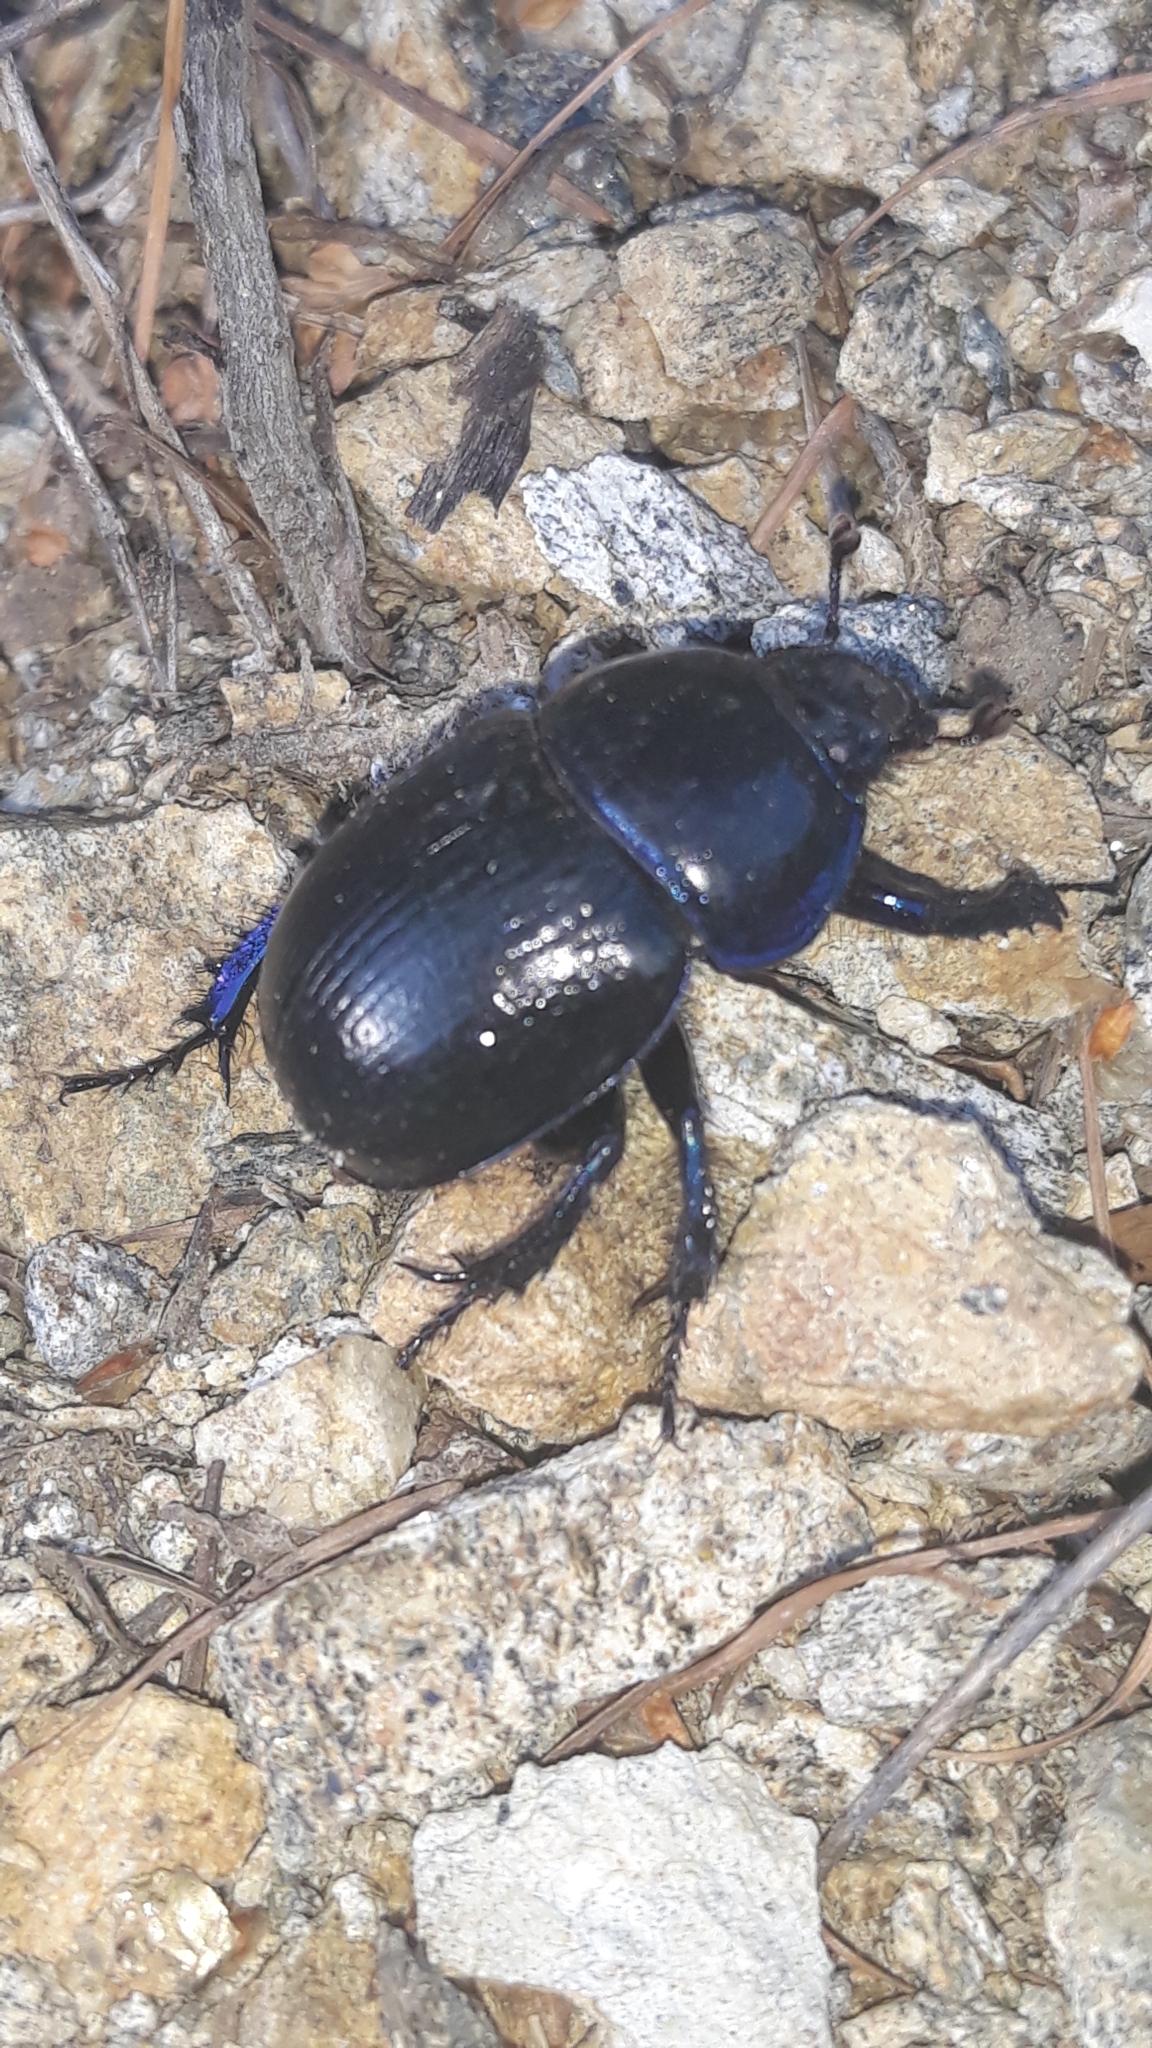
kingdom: Animalia
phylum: Arthropoda
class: Insecta
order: Coleoptera
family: Geotrupidae
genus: Anoplotrupes
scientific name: Anoplotrupes stercorosus
